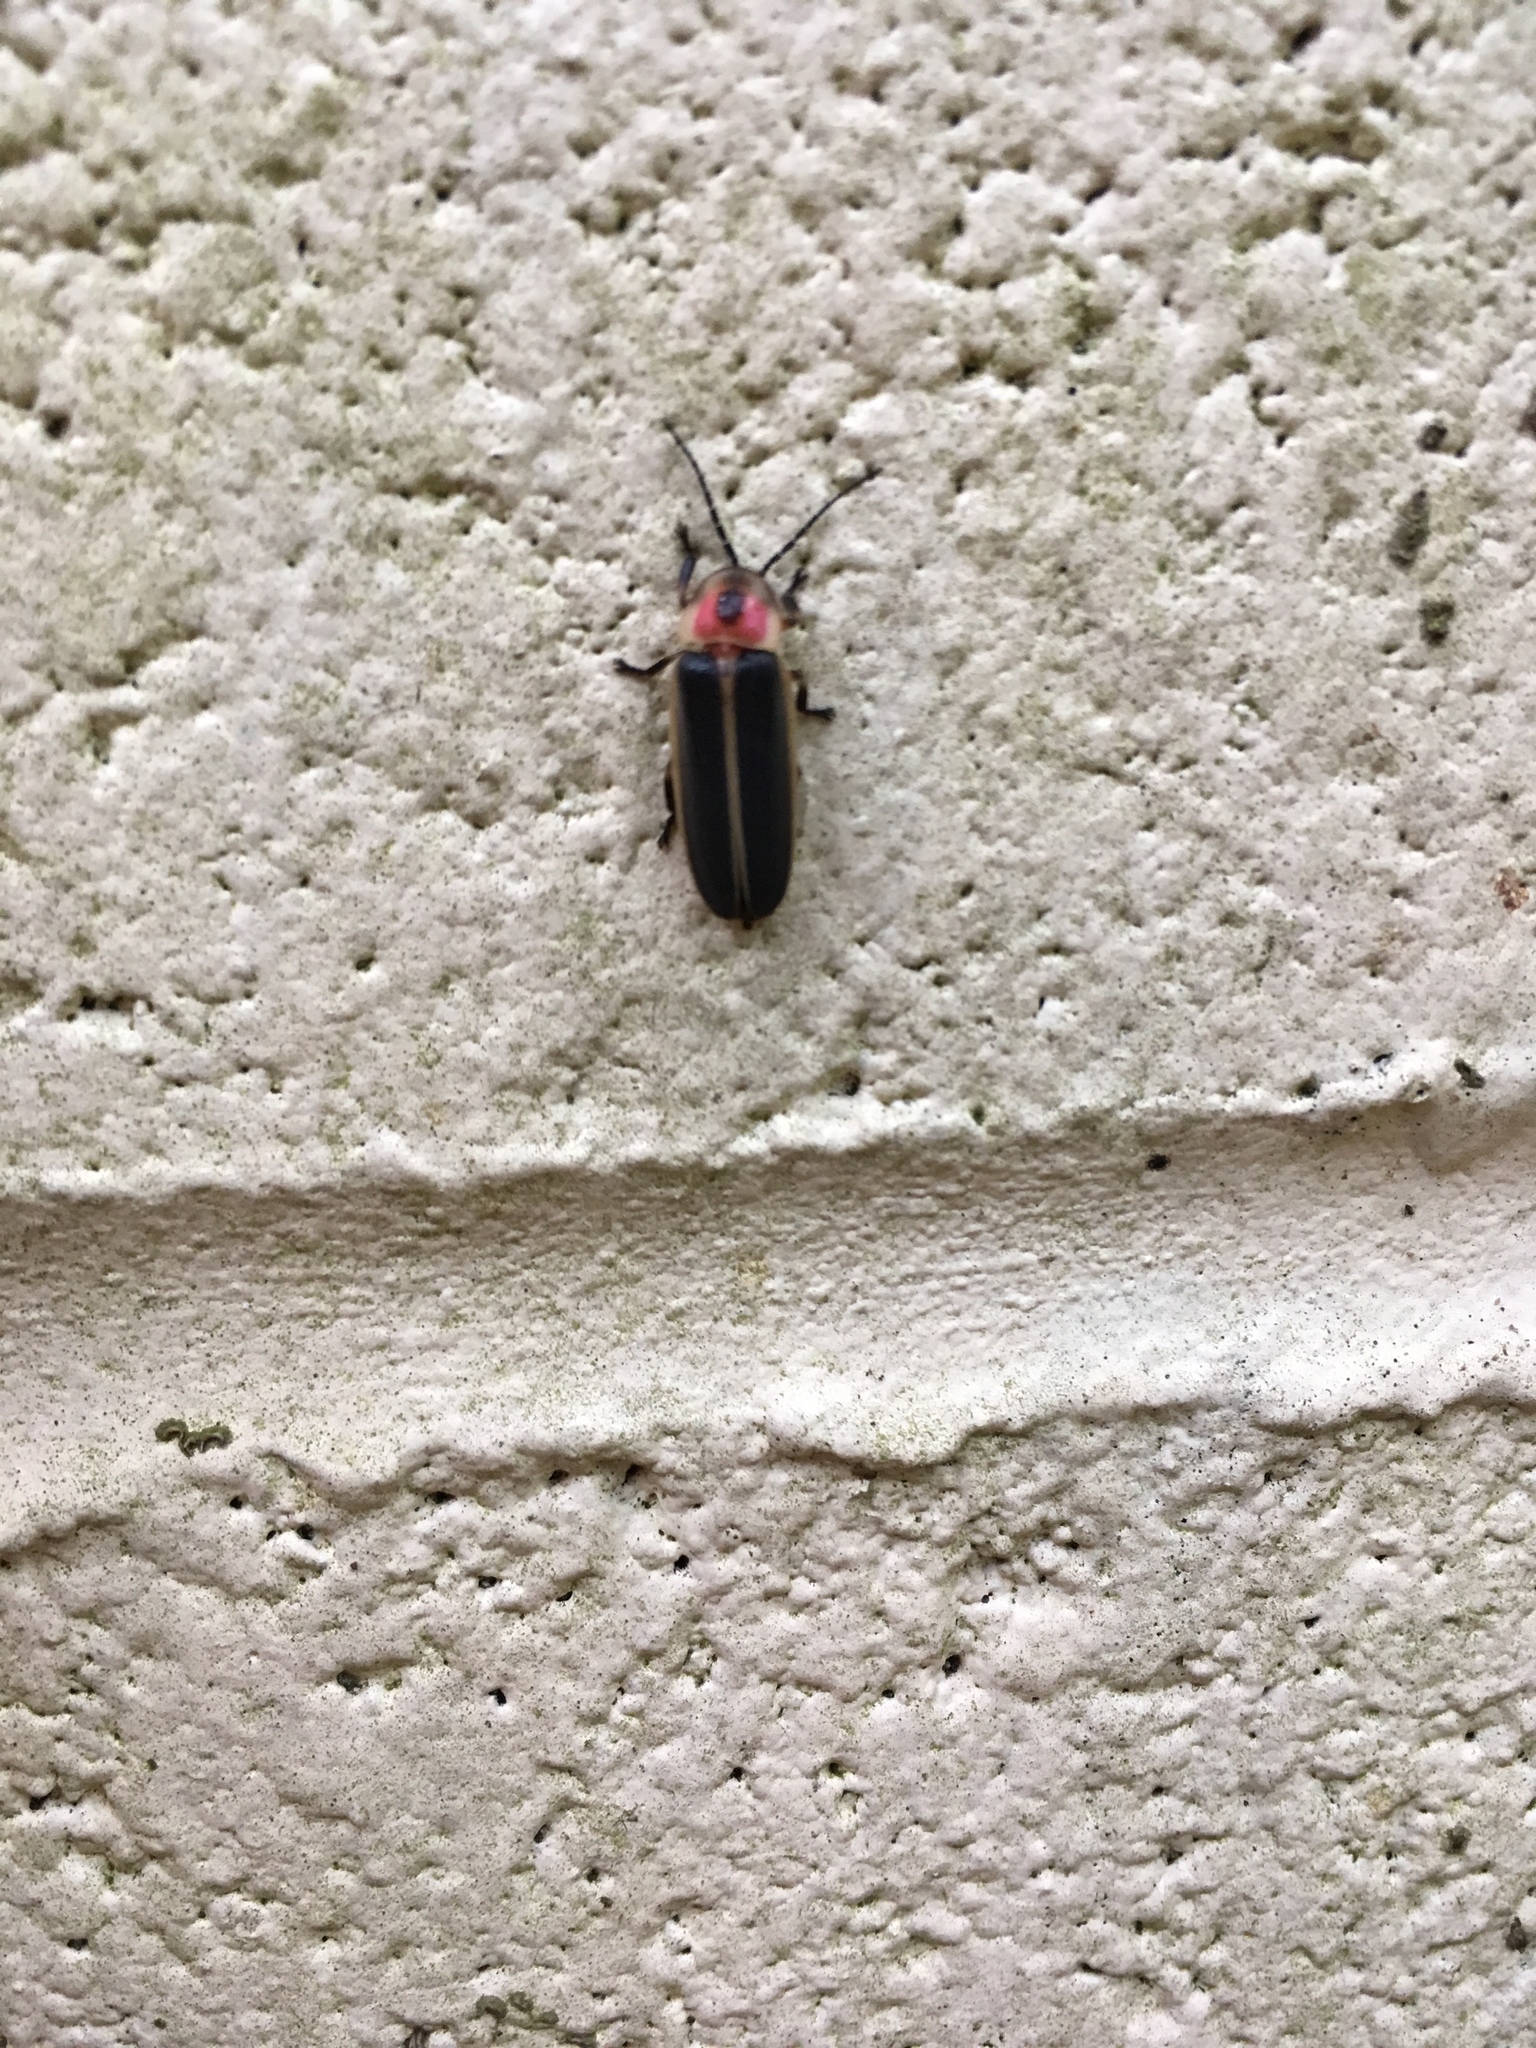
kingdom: Animalia
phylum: Arthropoda
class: Insecta
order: Coleoptera
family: Lampyridae
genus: Photinus
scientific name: Photinus pyralis
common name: Big dipper firefly
